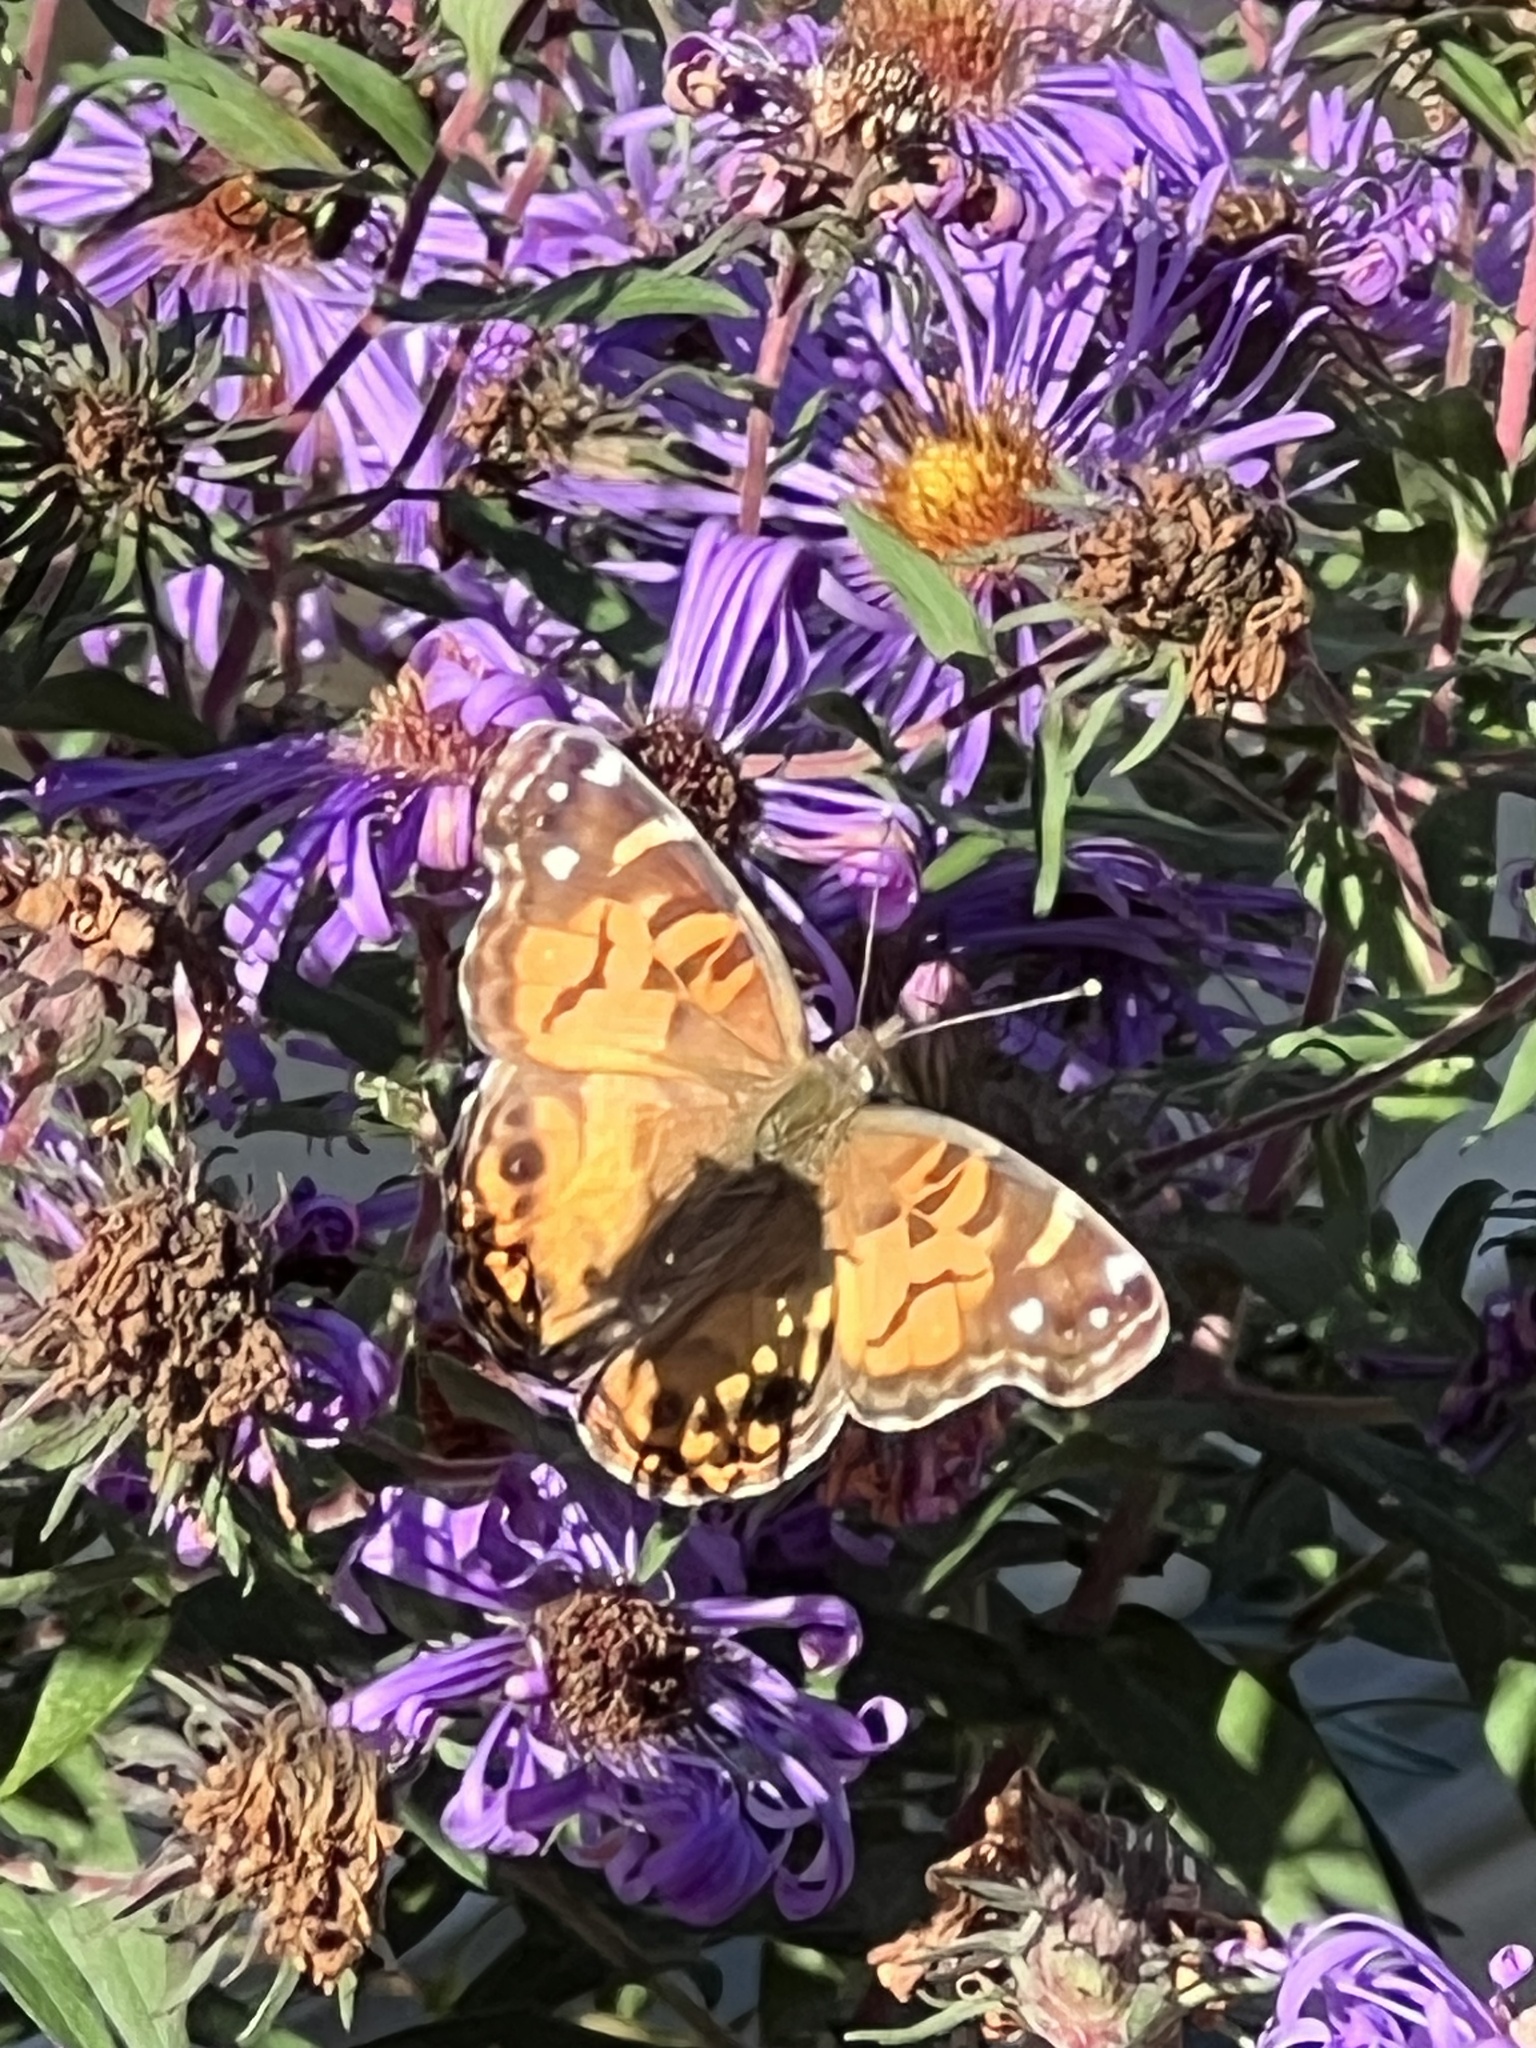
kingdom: Animalia
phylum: Arthropoda
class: Insecta
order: Lepidoptera
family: Nymphalidae
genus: Vanessa
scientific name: Vanessa virginiensis
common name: American lady
